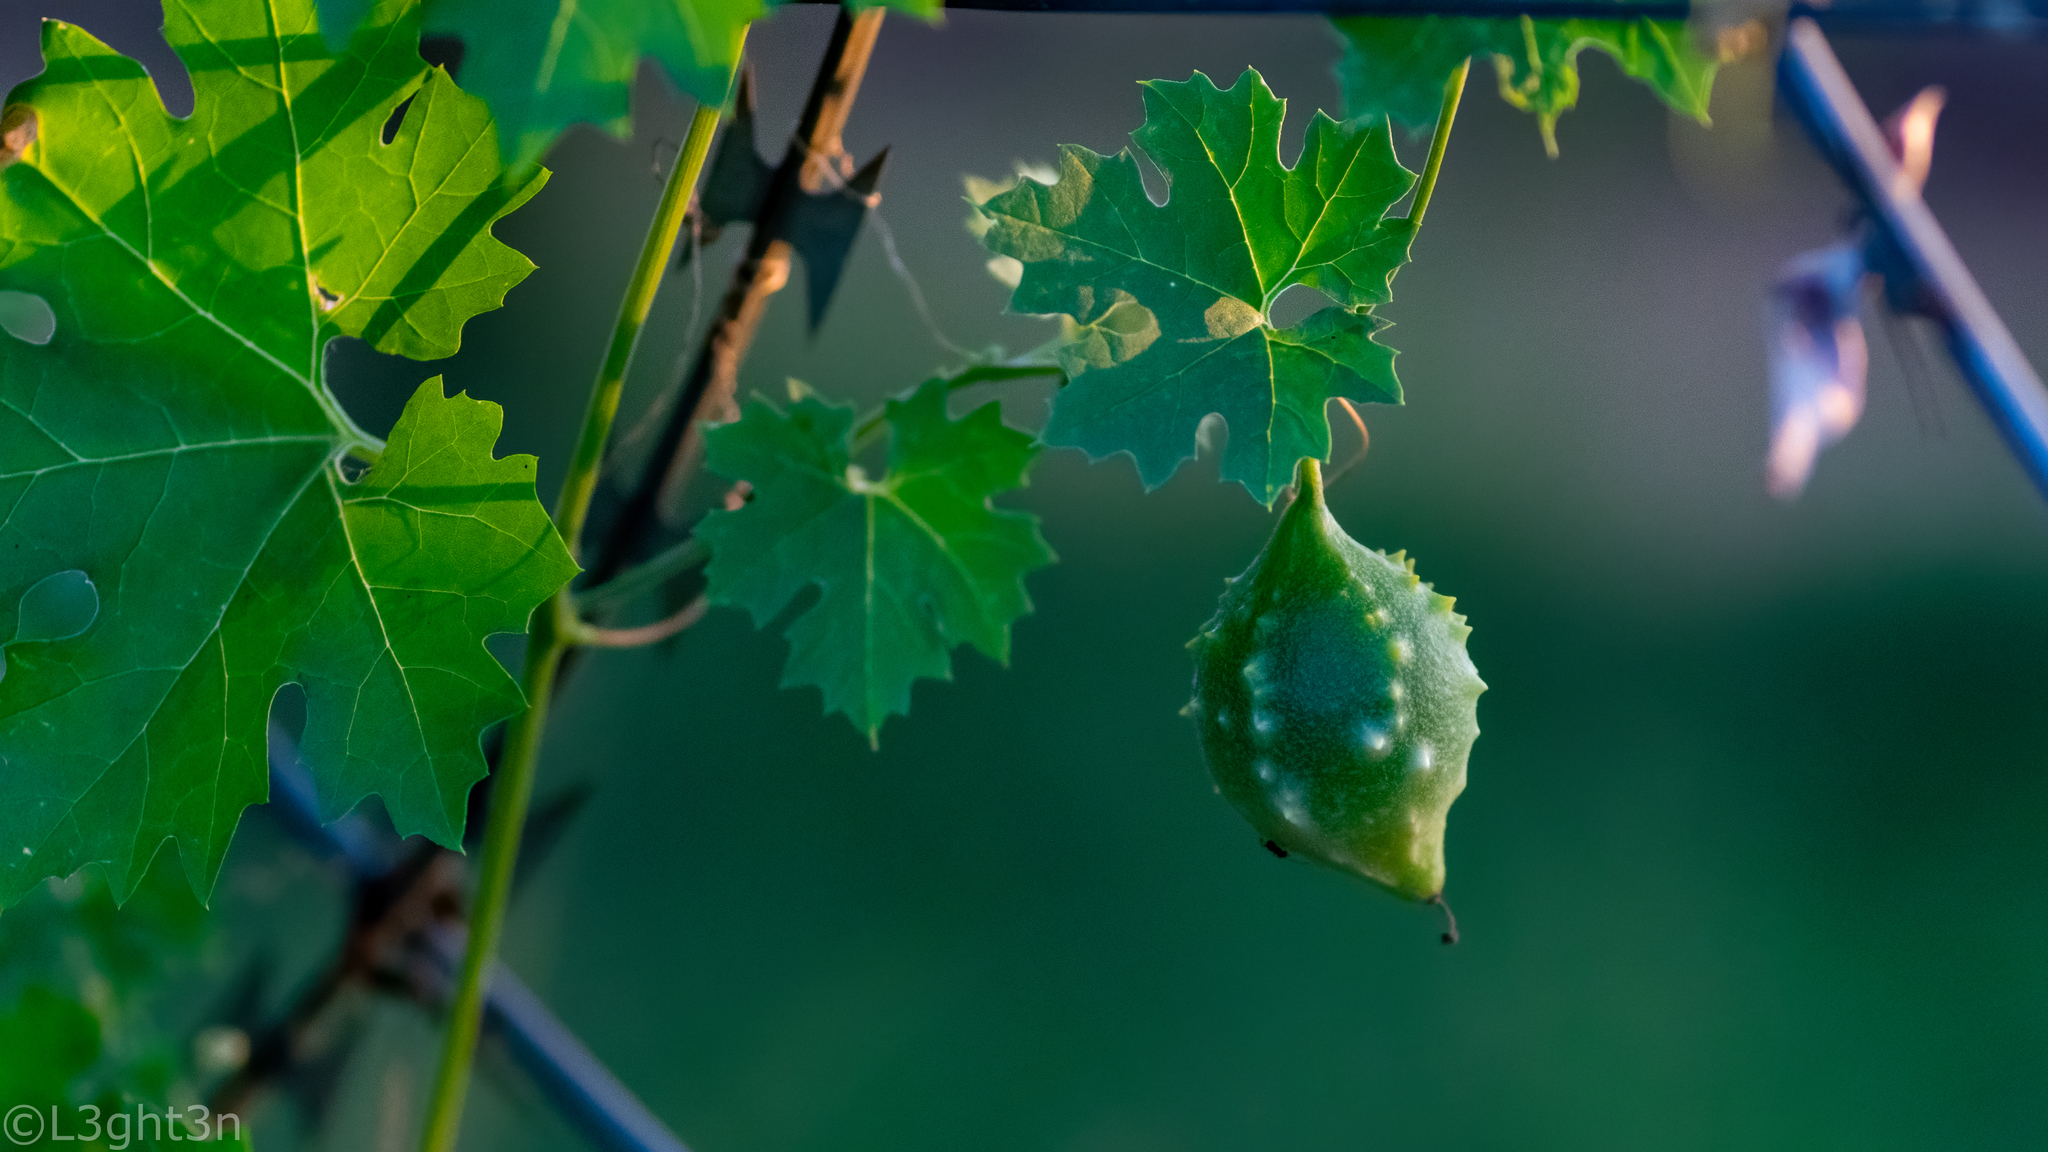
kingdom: Plantae
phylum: Tracheophyta
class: Magnoliopsida
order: Cucurbitales
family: Cucurbitaceae
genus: Momordica
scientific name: Momordica balsamina
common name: Southern balsampear
